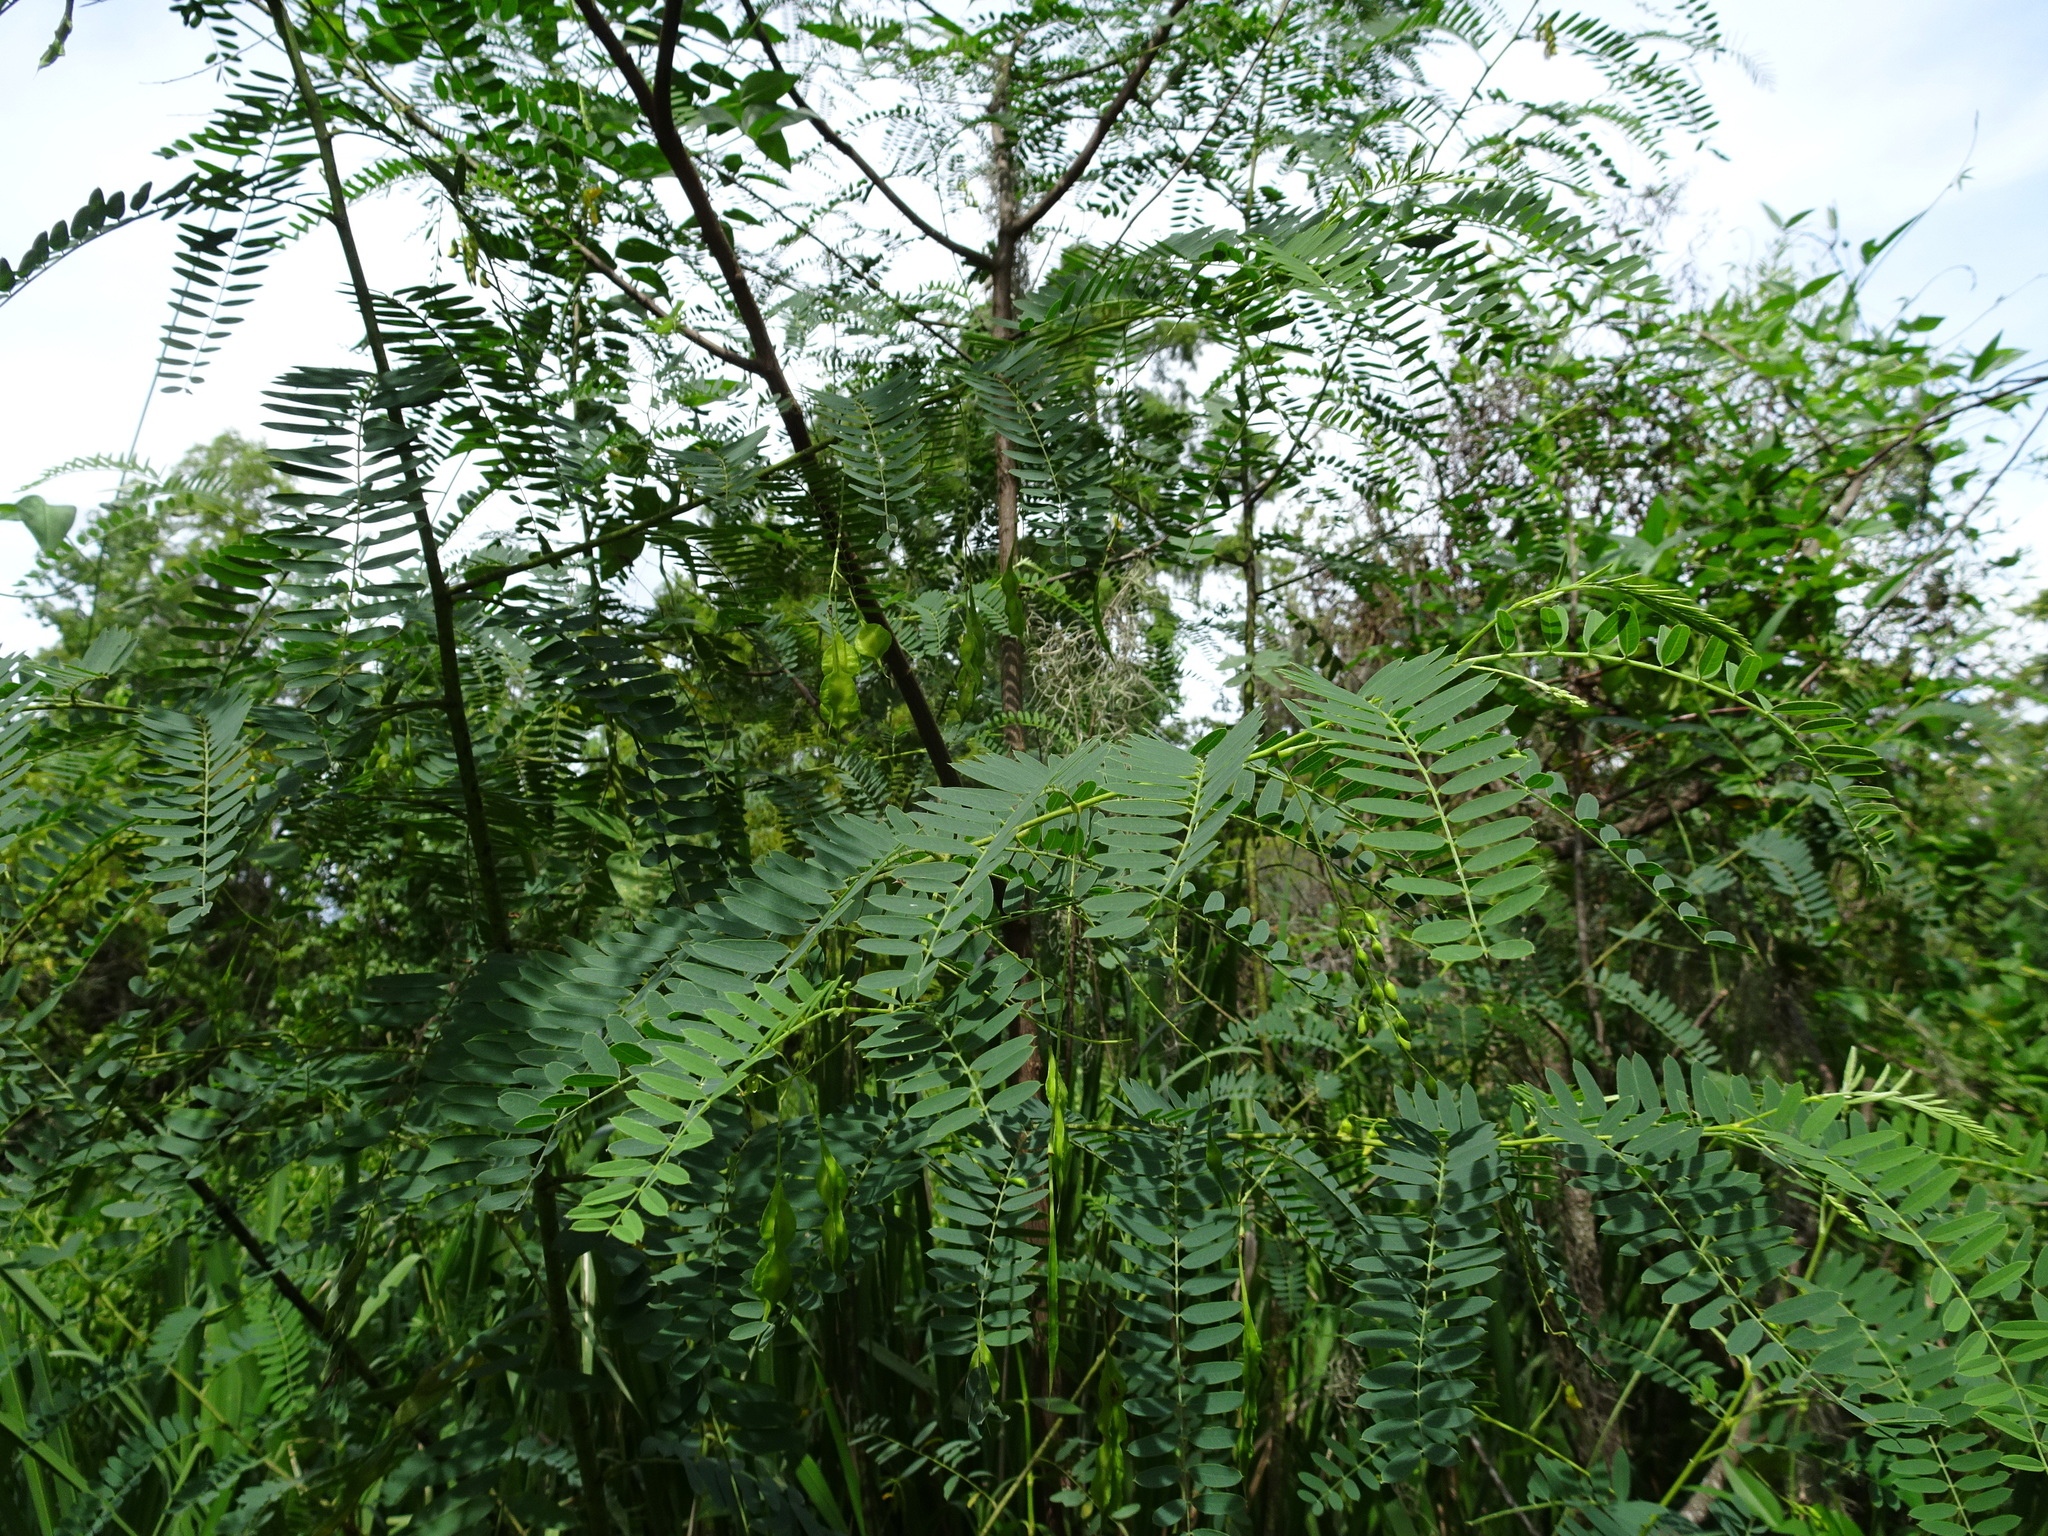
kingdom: Plantae
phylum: Tracheophyta
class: Magnoliopsida
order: Fabales
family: Fabaceae
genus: Sesbania
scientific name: Sesbania drummondii
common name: Poison-bean
